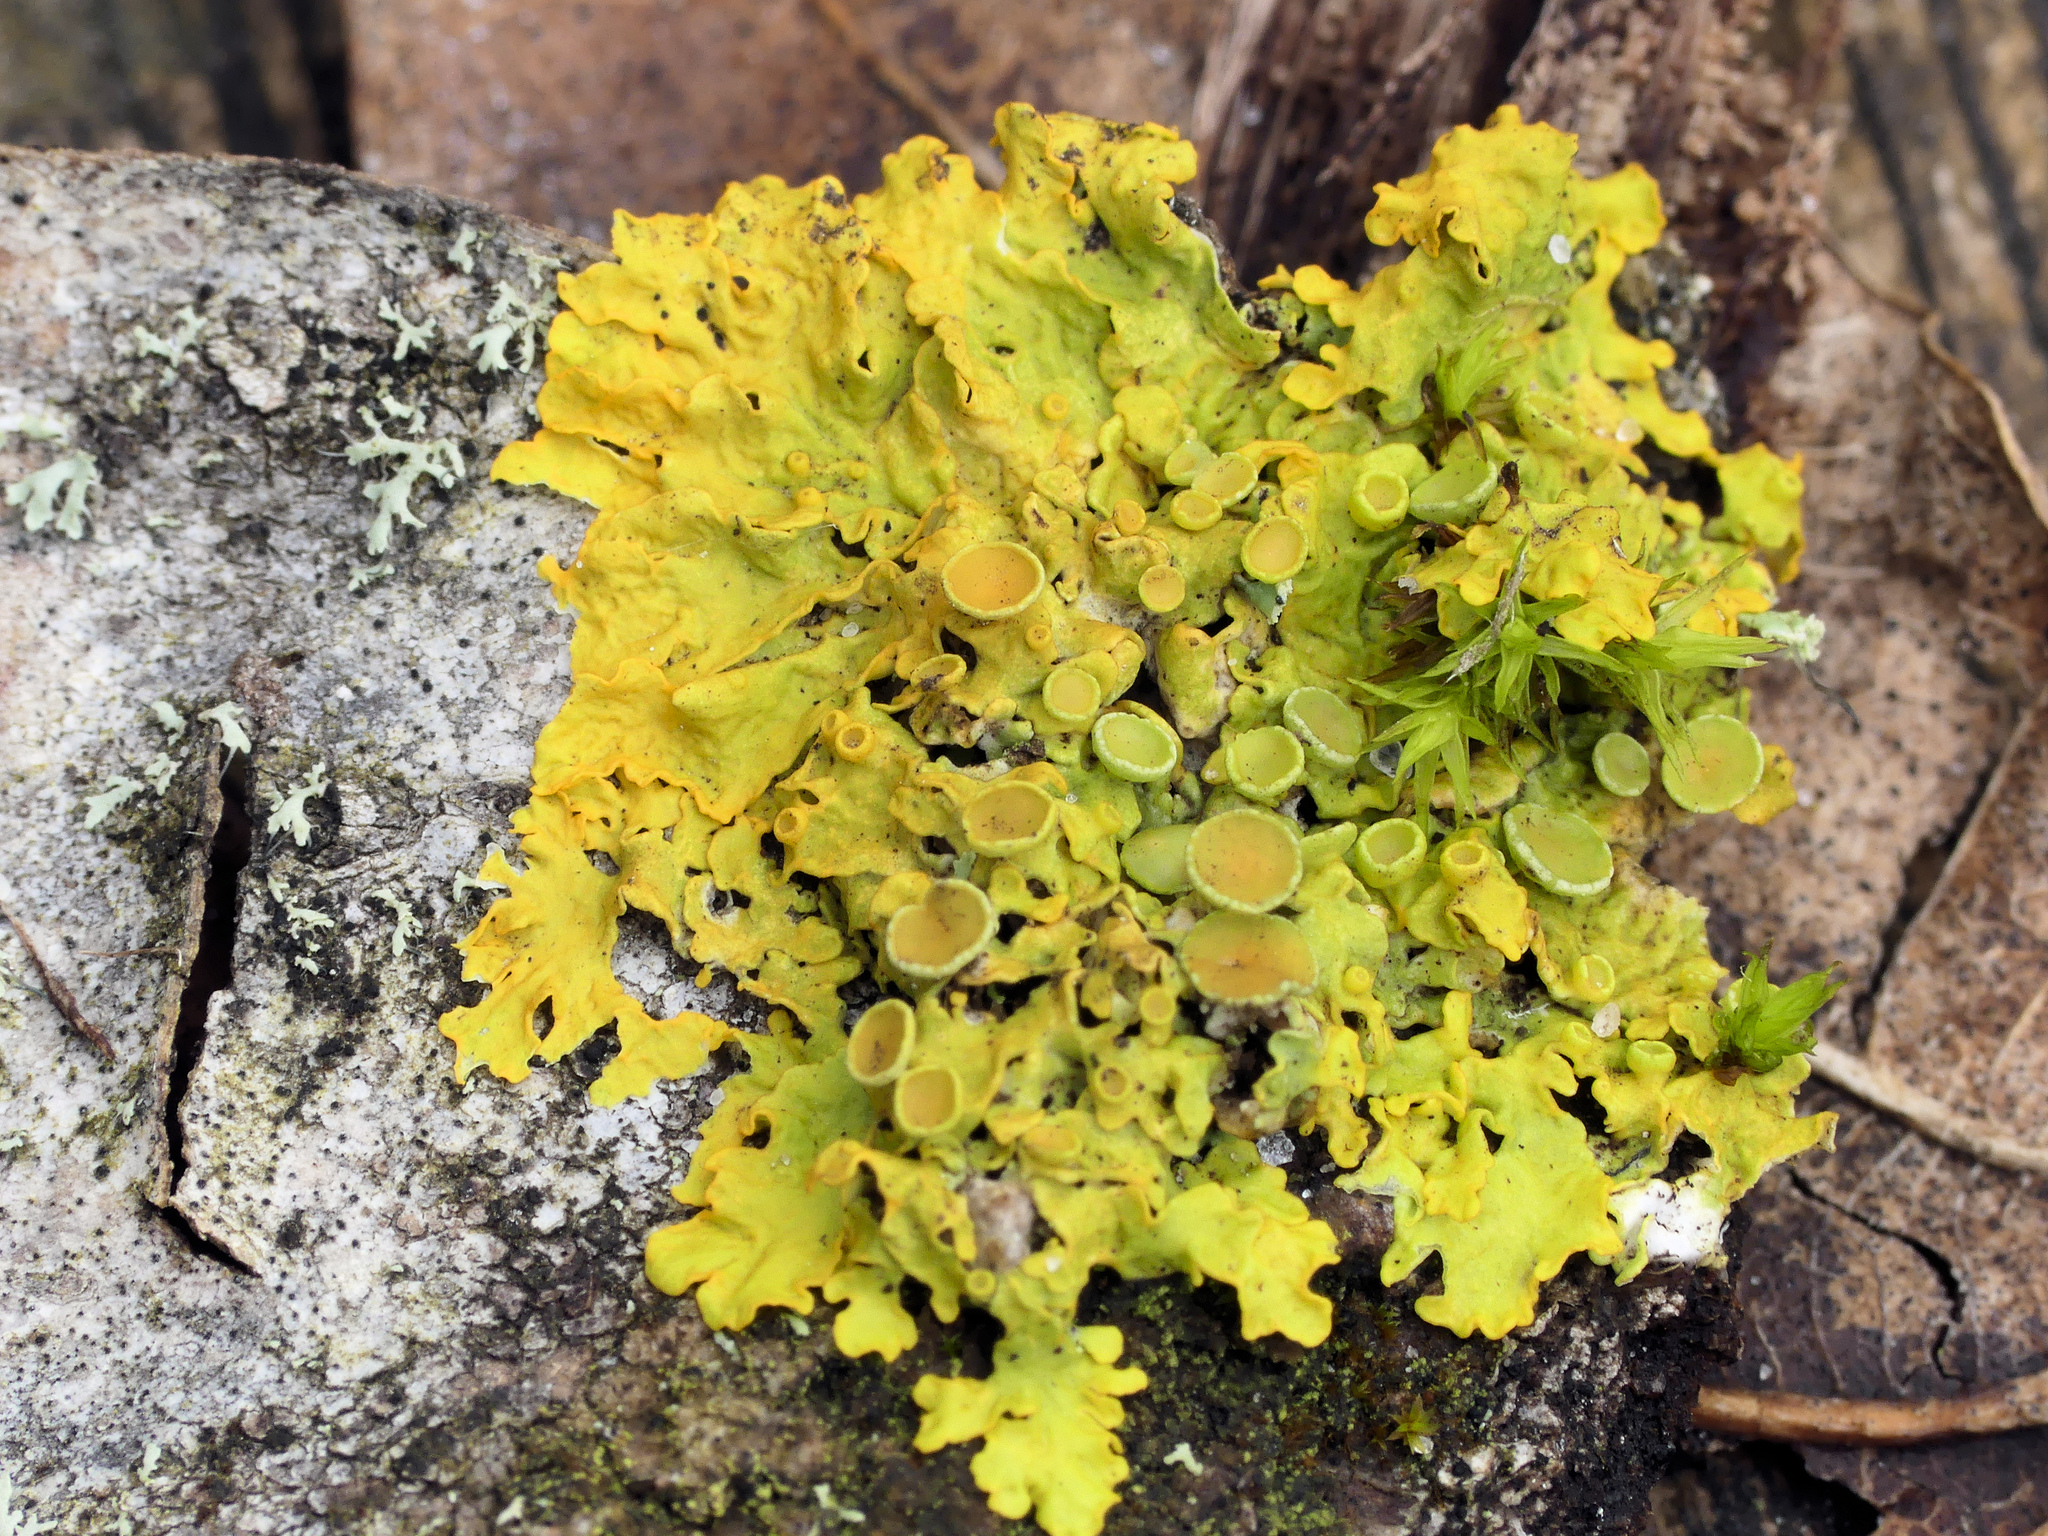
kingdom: Fungi
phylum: Ascomycota
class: Lecanoromycetes
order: Teloschistales
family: Teloschistaceae
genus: Xanthoria
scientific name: Xanthoria parietina
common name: Common orange lichen
